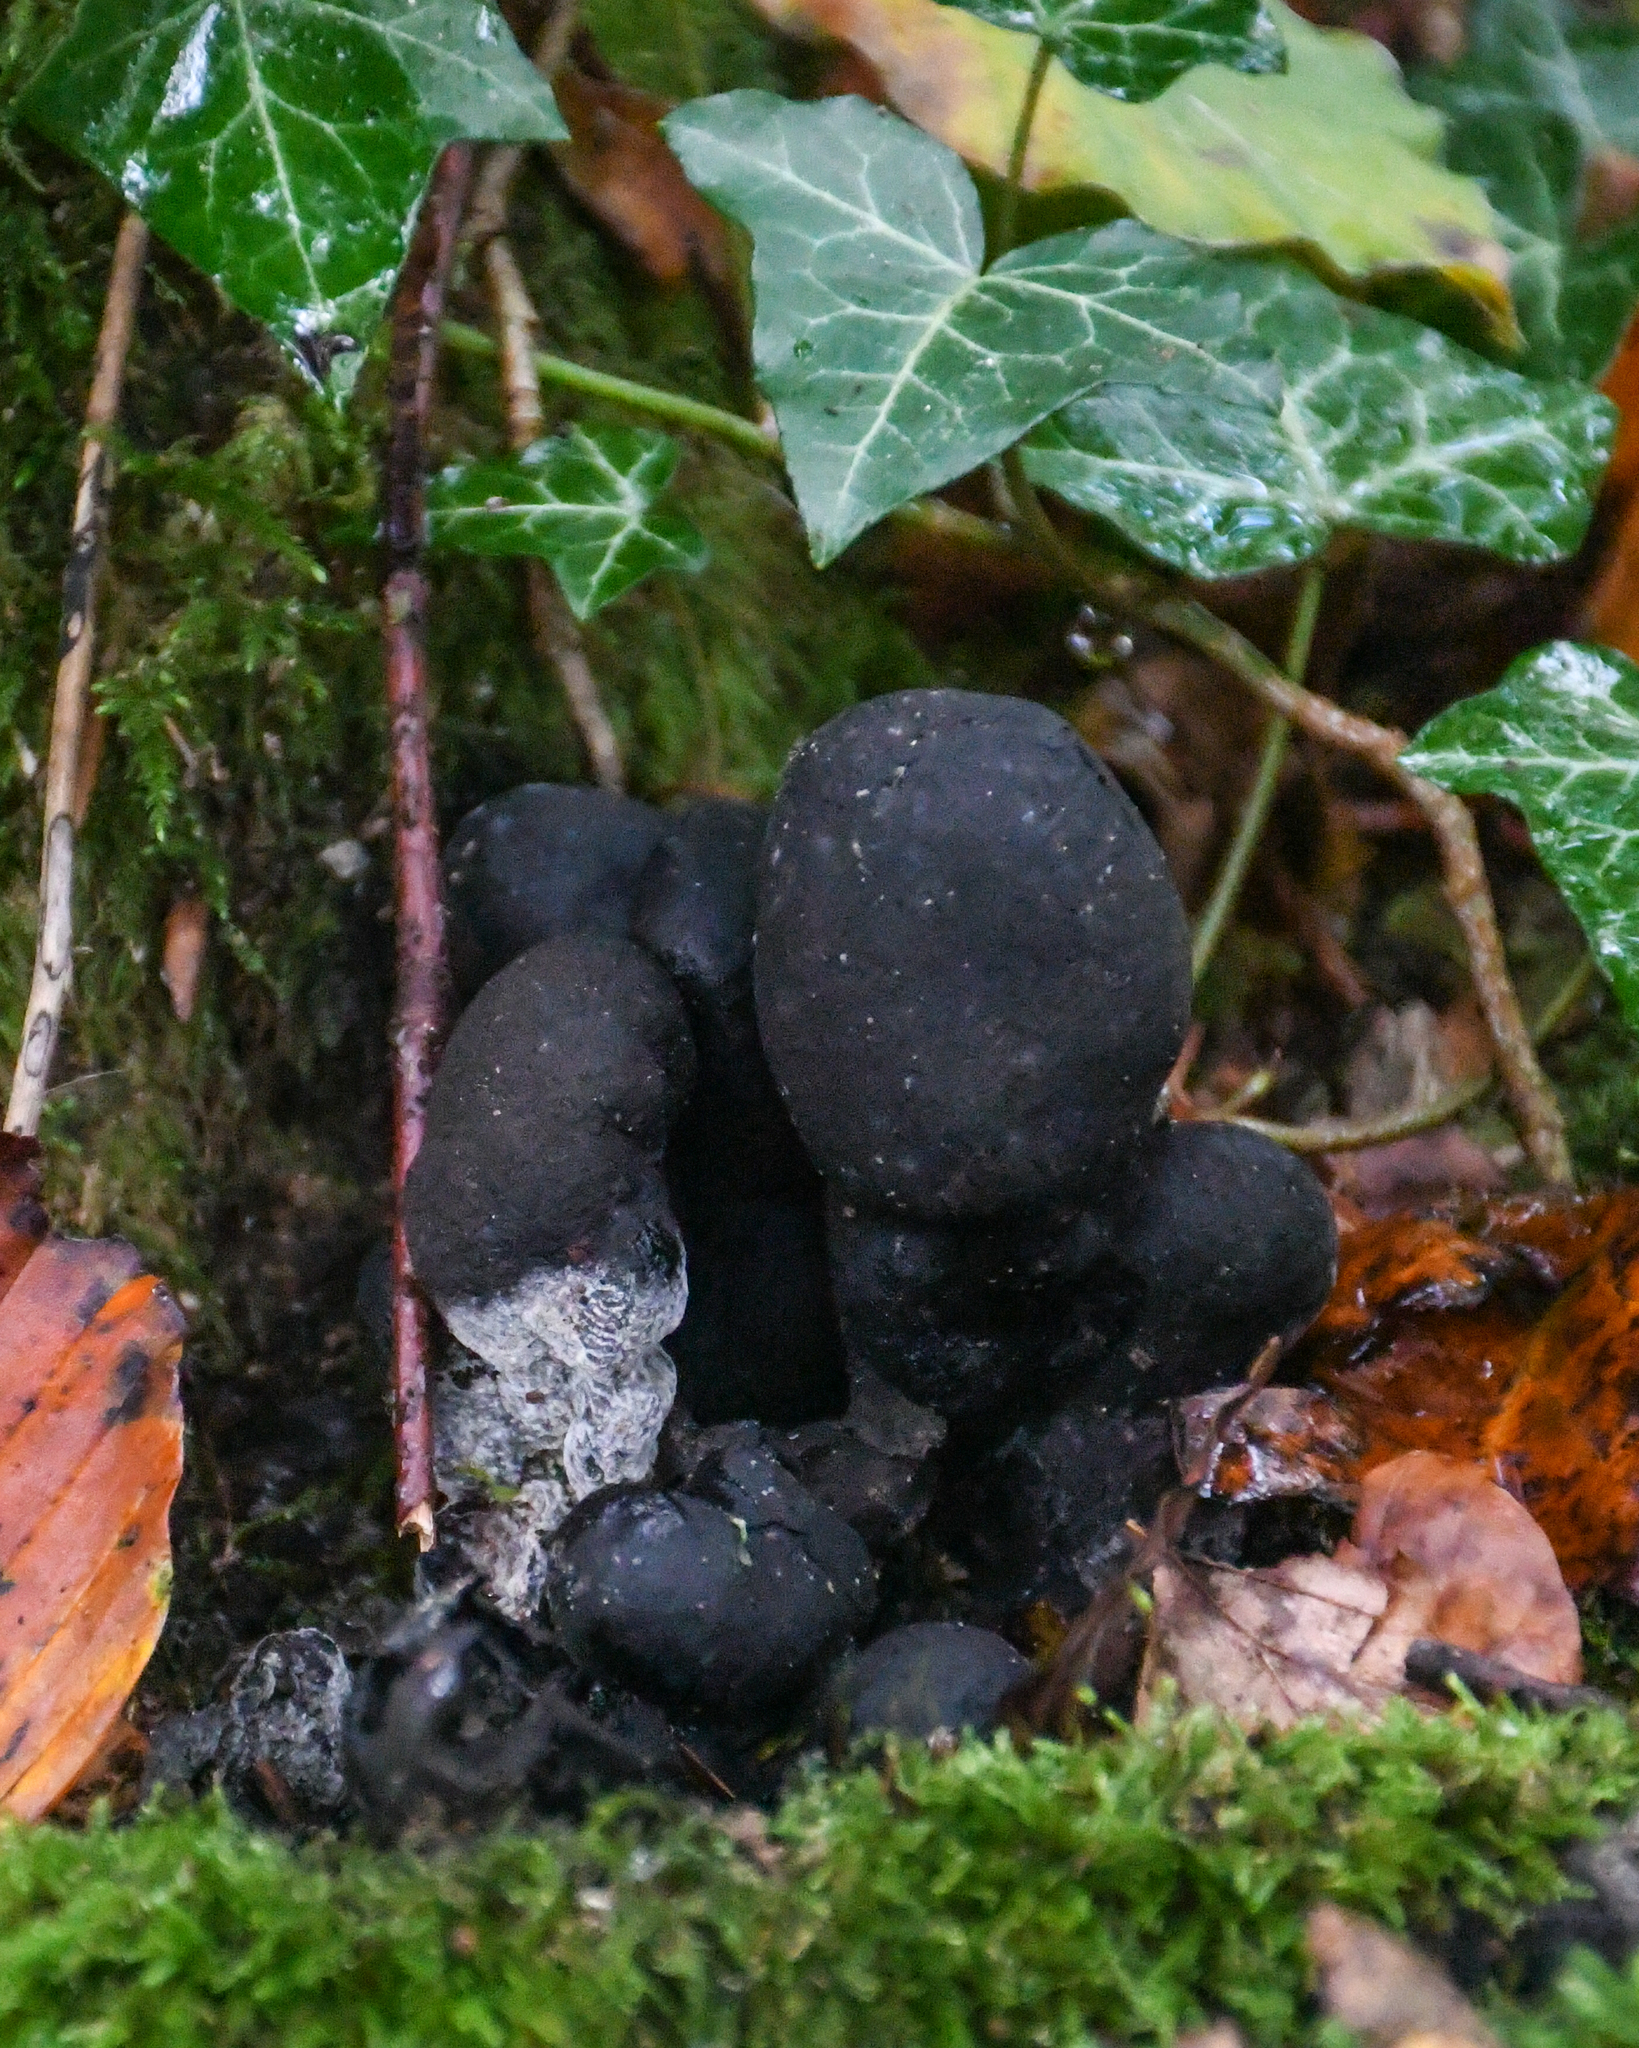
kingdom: Fungi
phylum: Ascomycota
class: Sordariomycetes
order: Xylariales
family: Xylariaceae
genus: Xylaria
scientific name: Xylaria polymorpha
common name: Dead man's fingers
